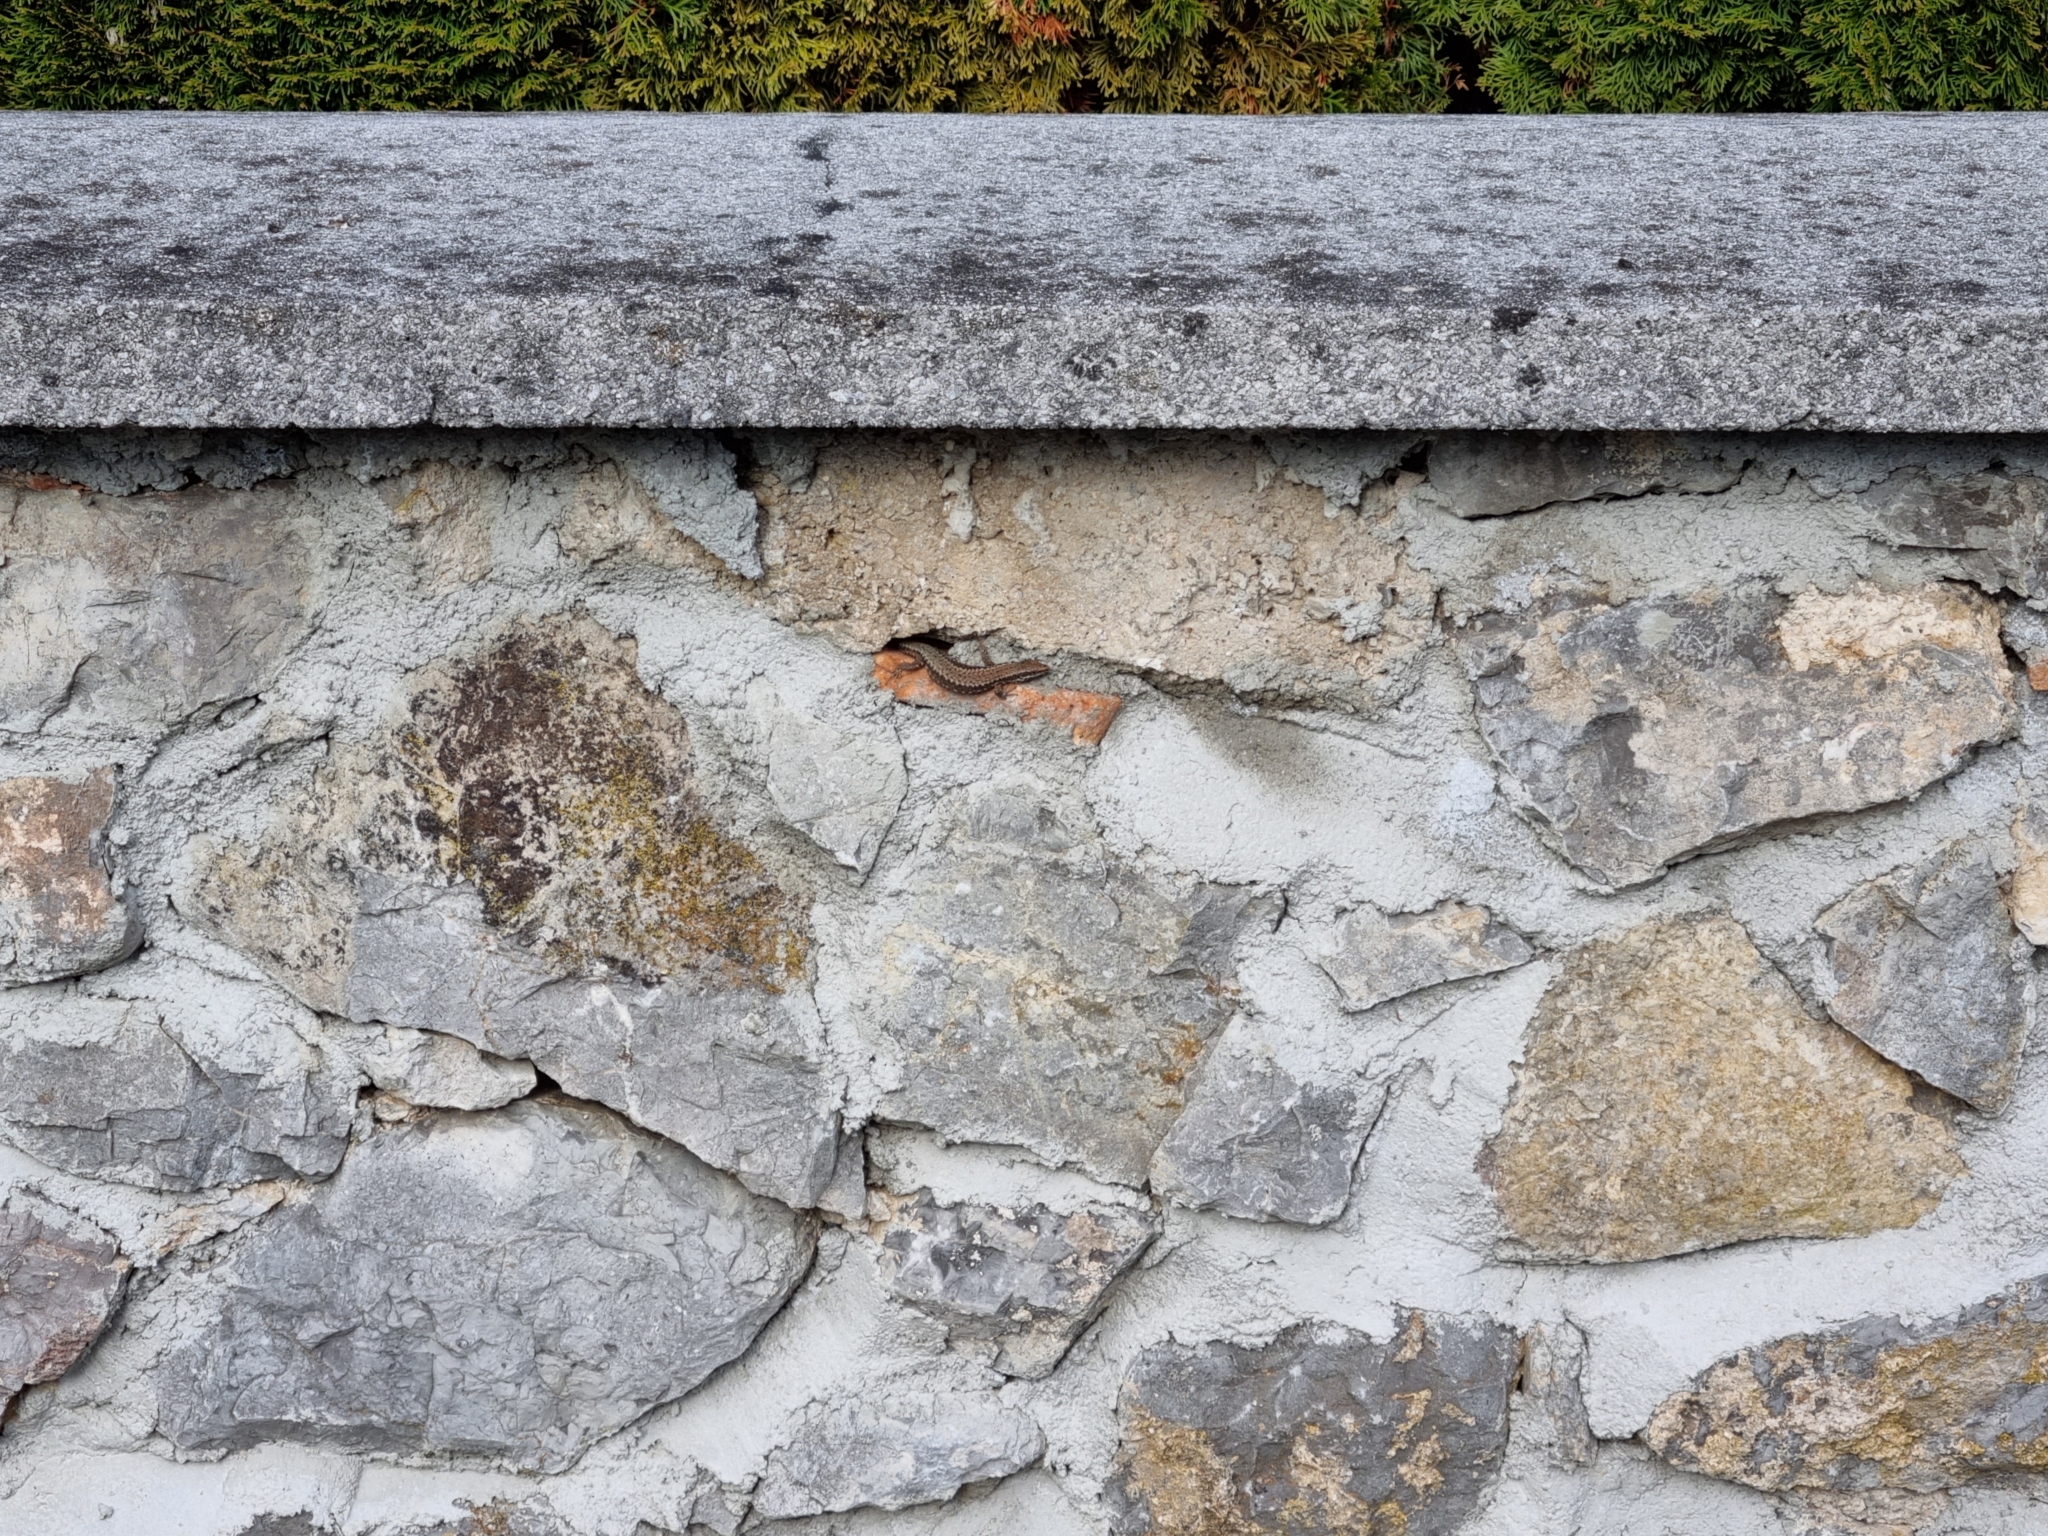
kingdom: Animalia
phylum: Chordata
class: Squamata
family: Lacertidae
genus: Podarcis
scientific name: Podarcis muralis
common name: Common wall lizard
